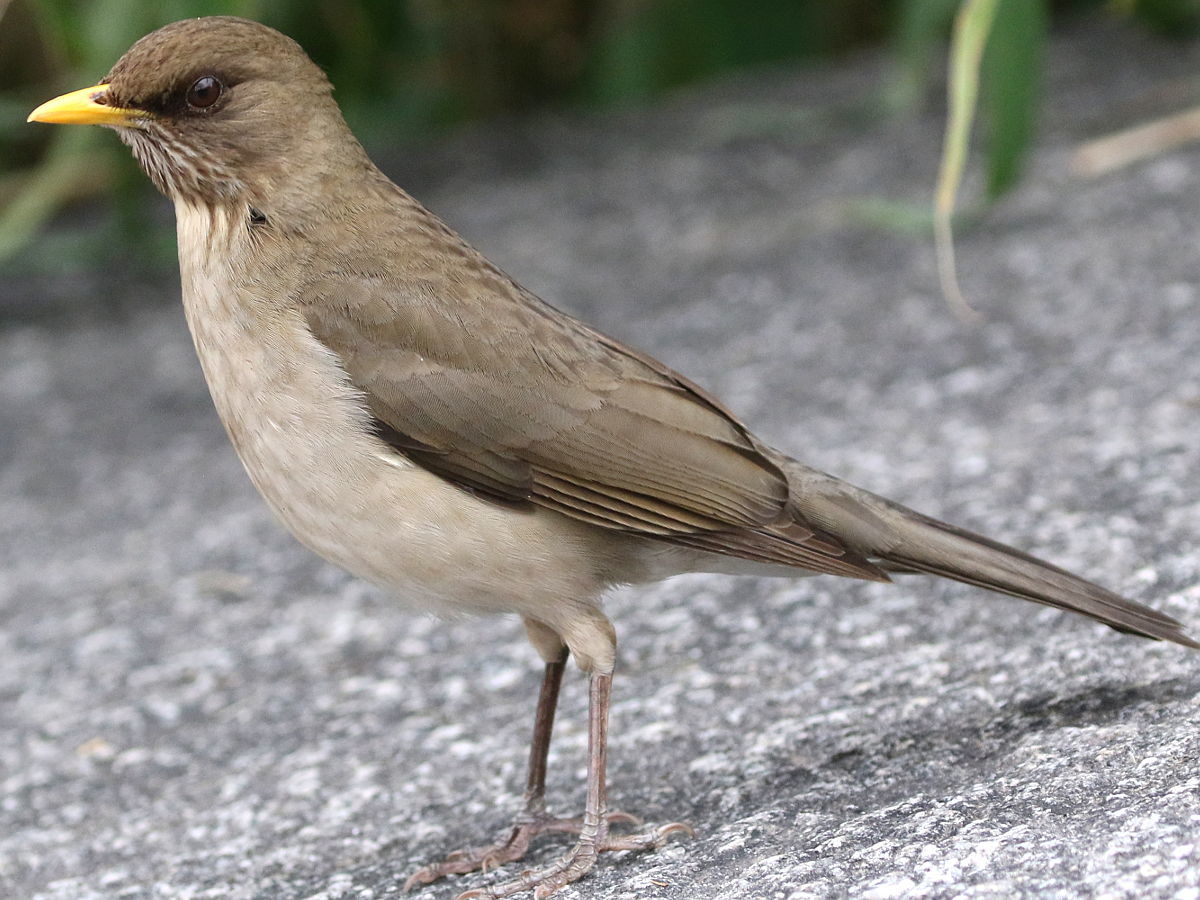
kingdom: Animalia
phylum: Chordata
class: Aves
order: Passeriformes
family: Turdidae
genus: Turdus
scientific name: Turdus amaurochalinus
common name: Creamy-bellied thrush
